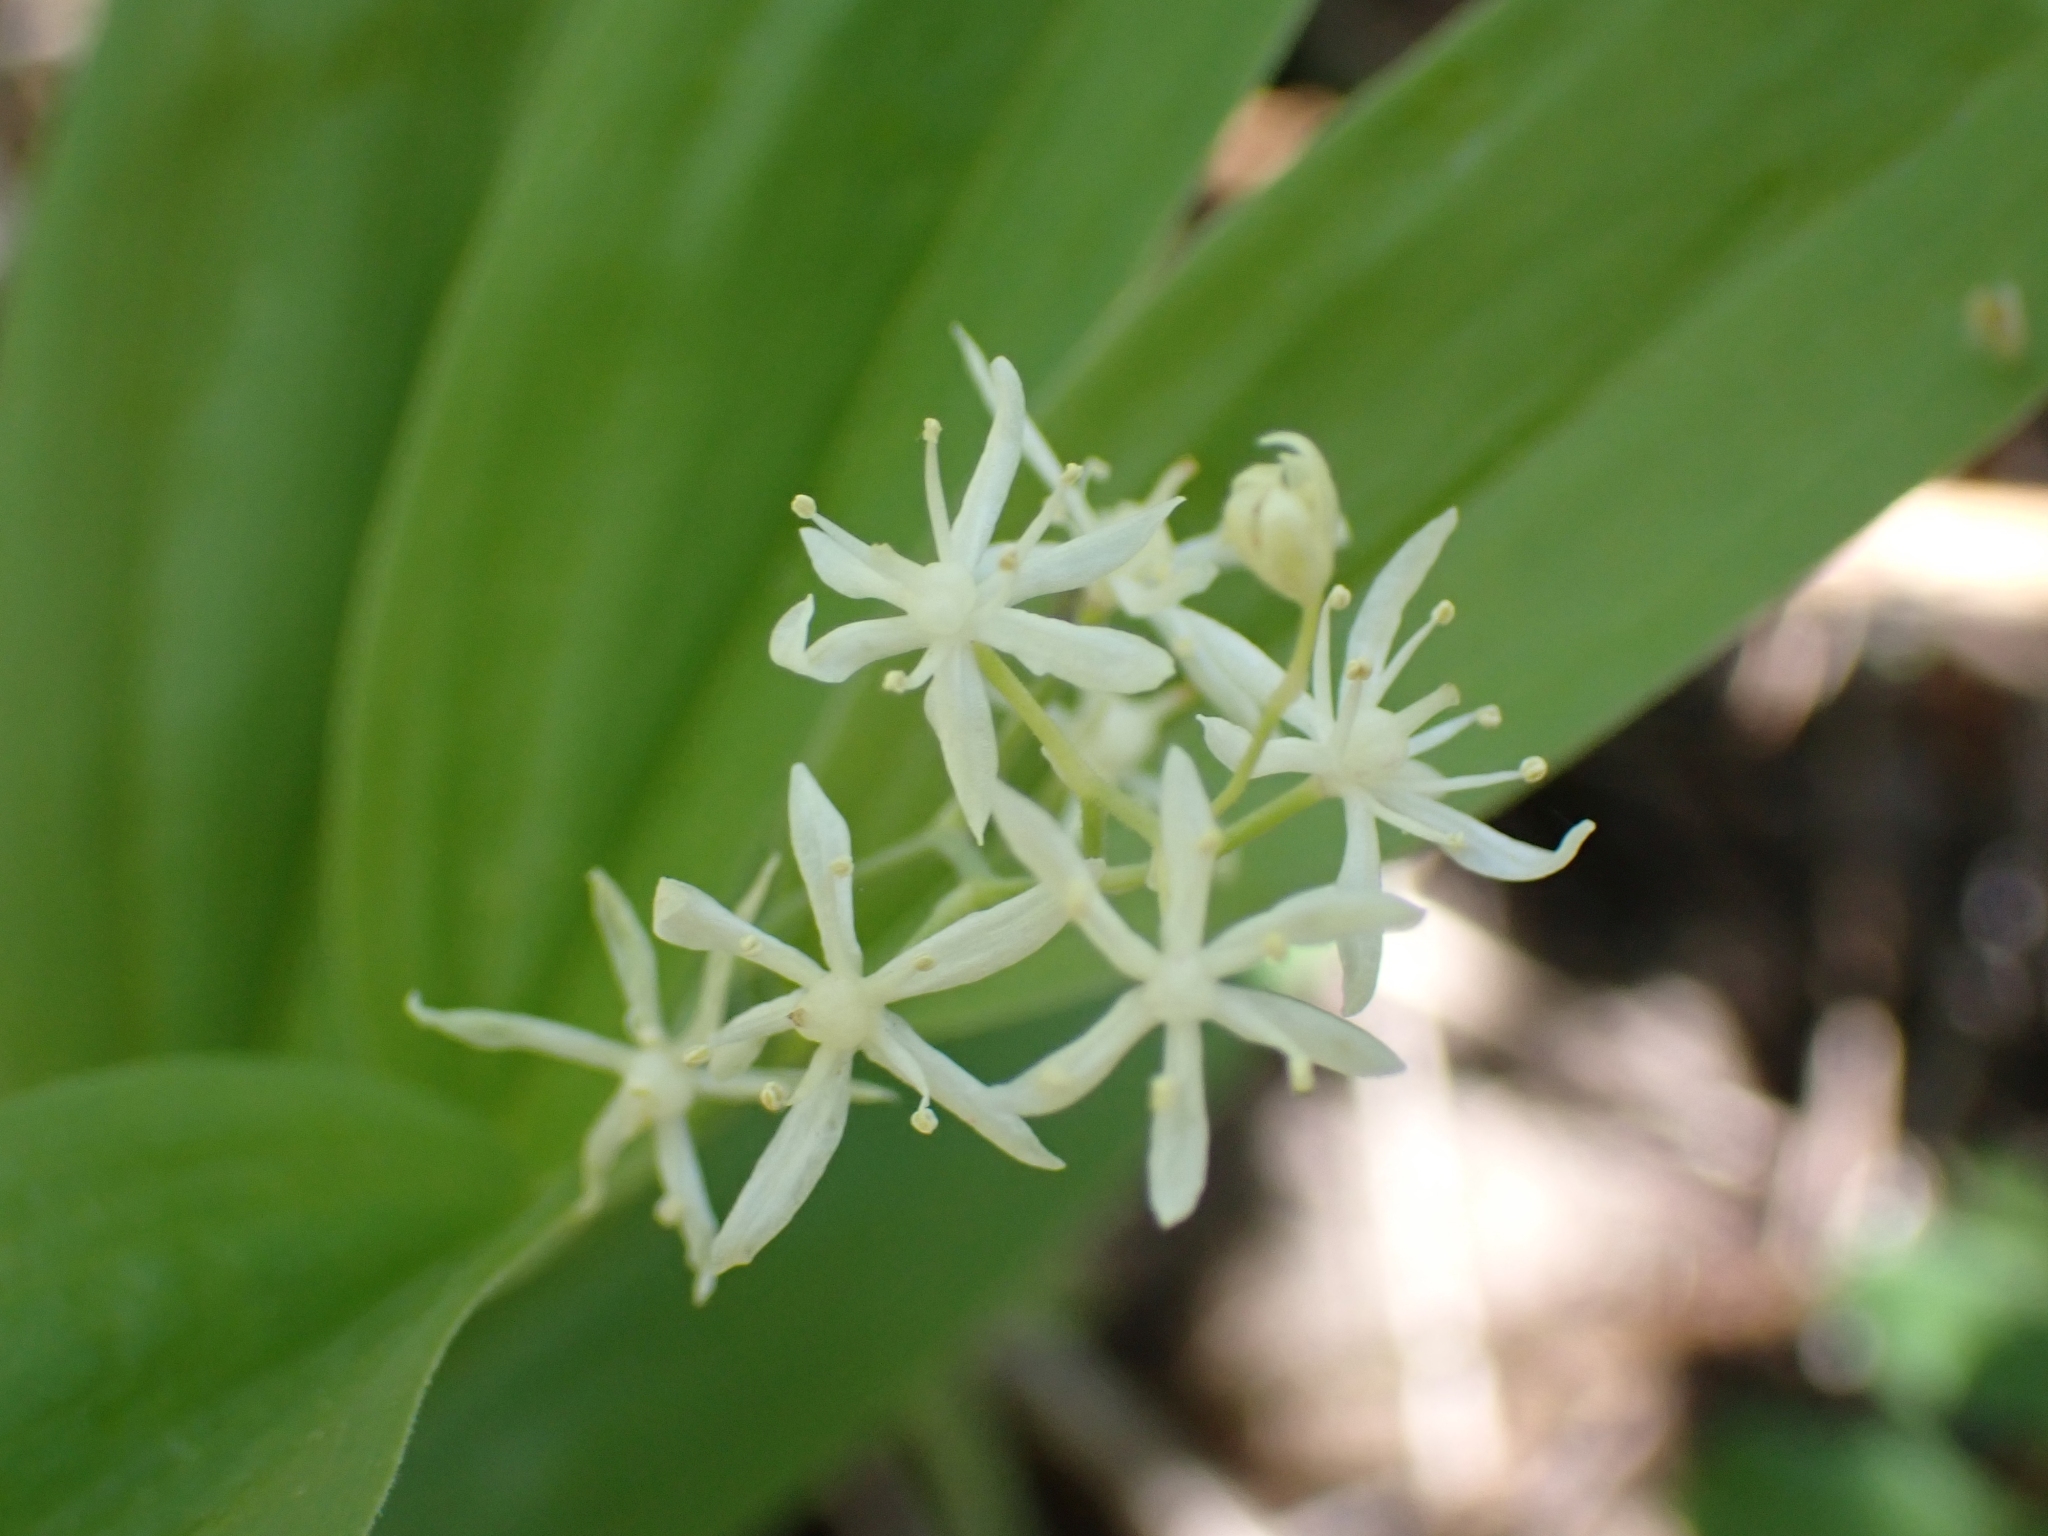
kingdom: Plantae
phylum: Tracheophyta
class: Liliopsida
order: Asparagales
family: Asparagaceae
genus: Maianthemum
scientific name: Maianthemum stellatum
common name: Little false solomon's seal
